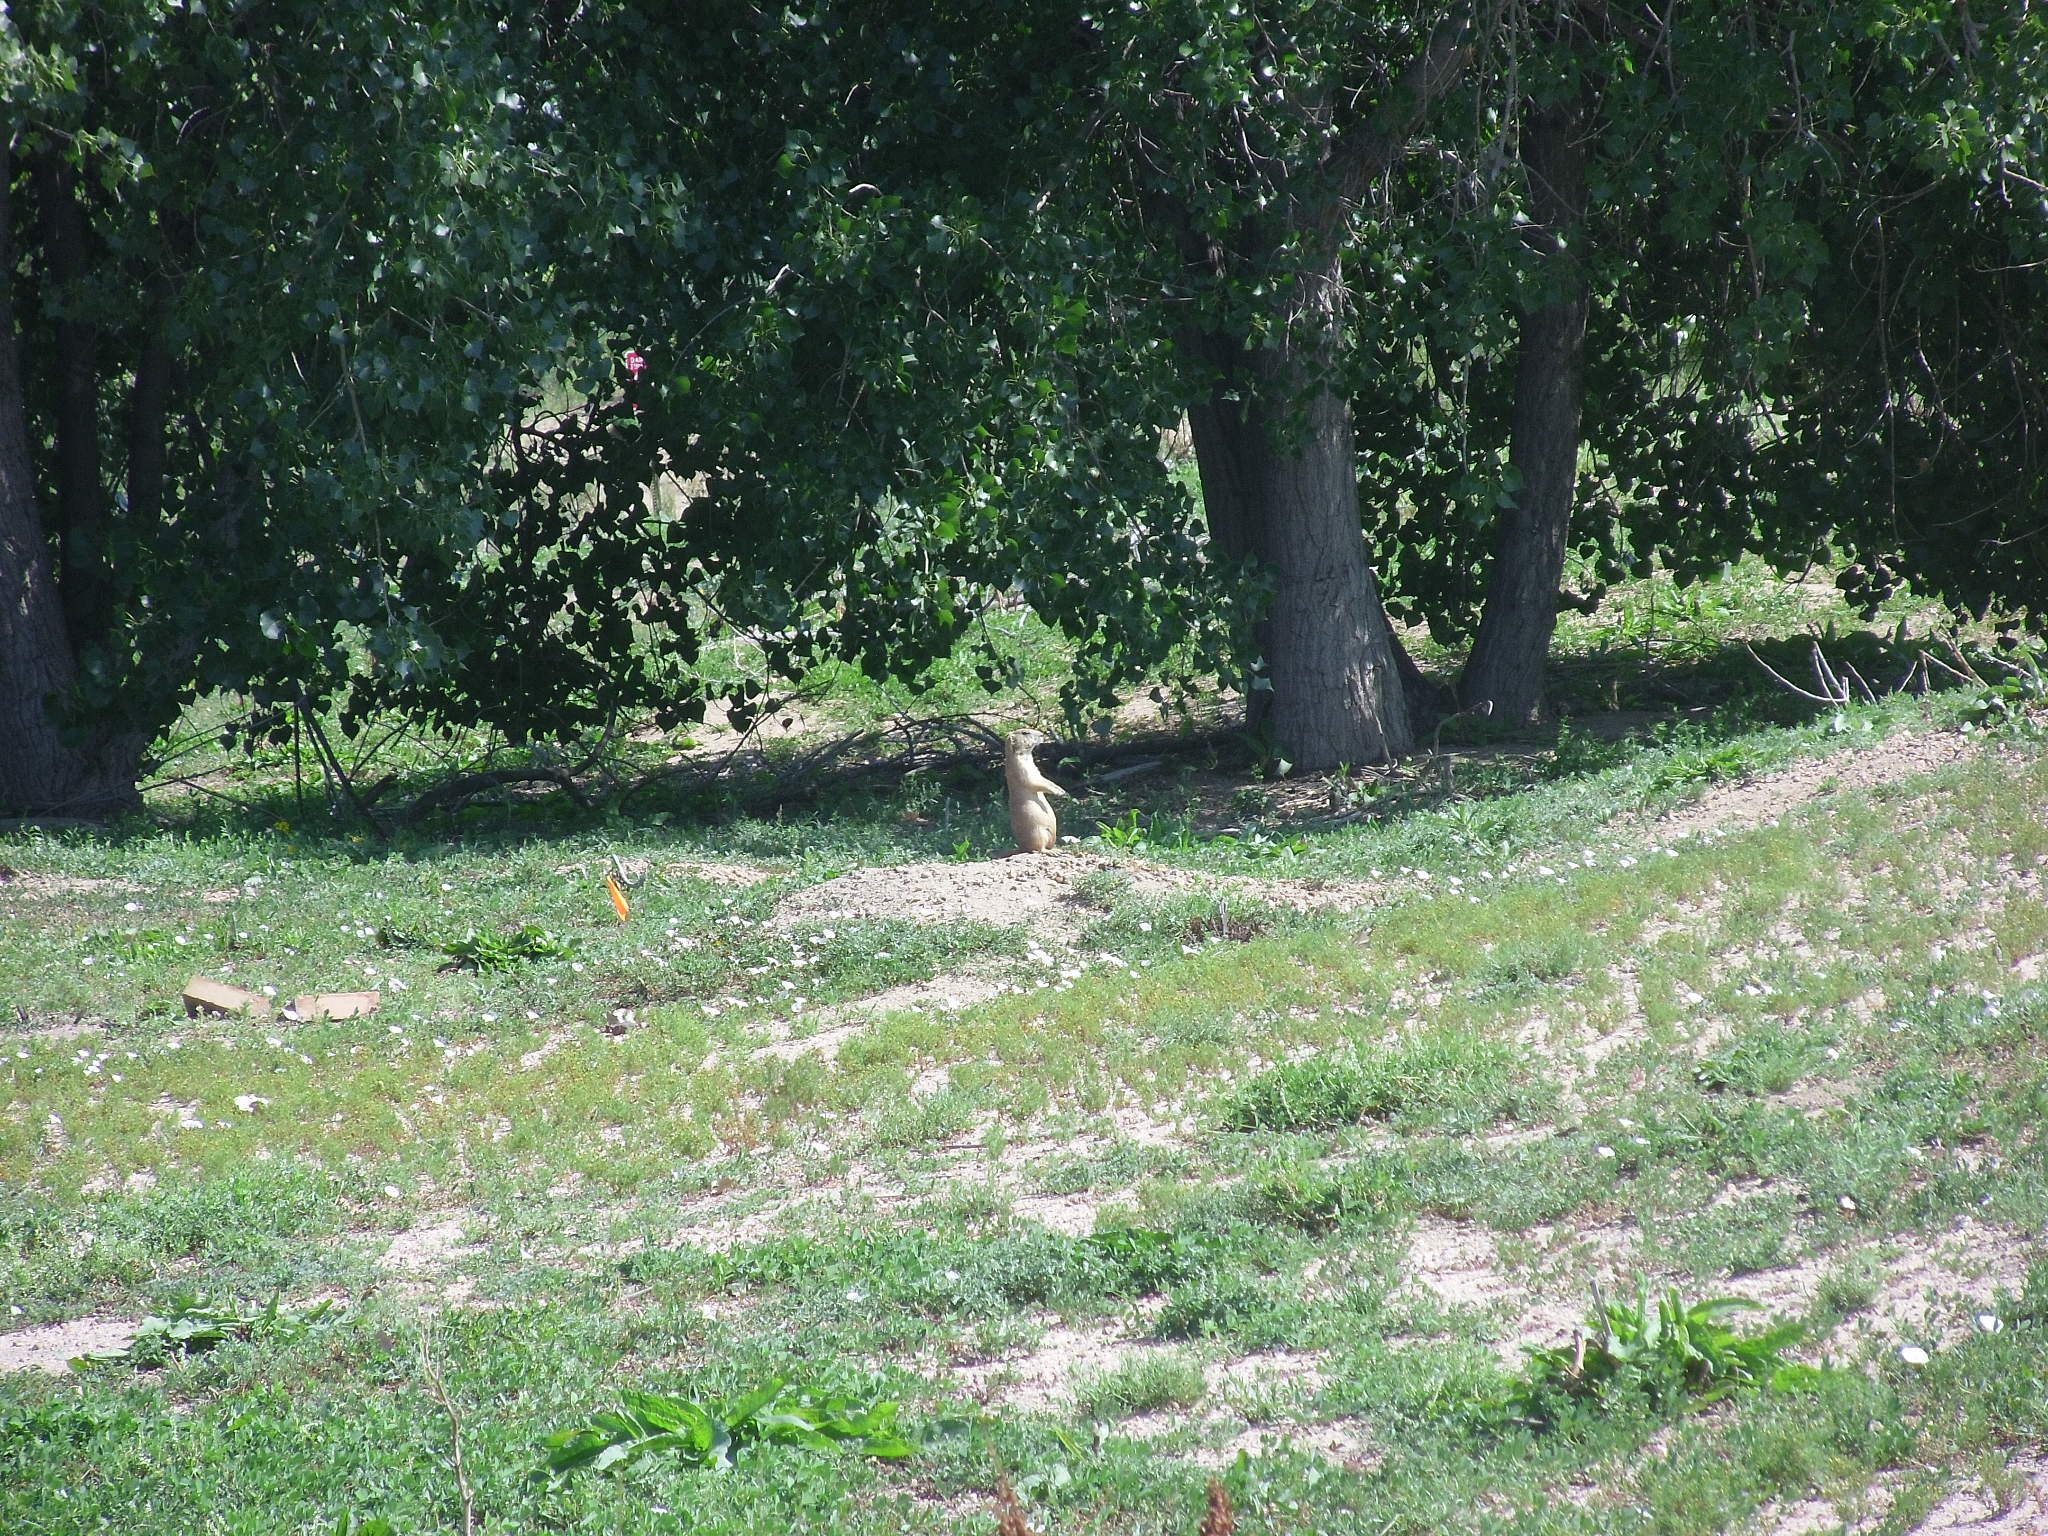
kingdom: Animalia
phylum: Chordata
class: Mammalia
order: Rodentia
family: Sciuridae
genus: Cynomys
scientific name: Cynomys ludovicianus
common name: Black-tailed prairie dog
